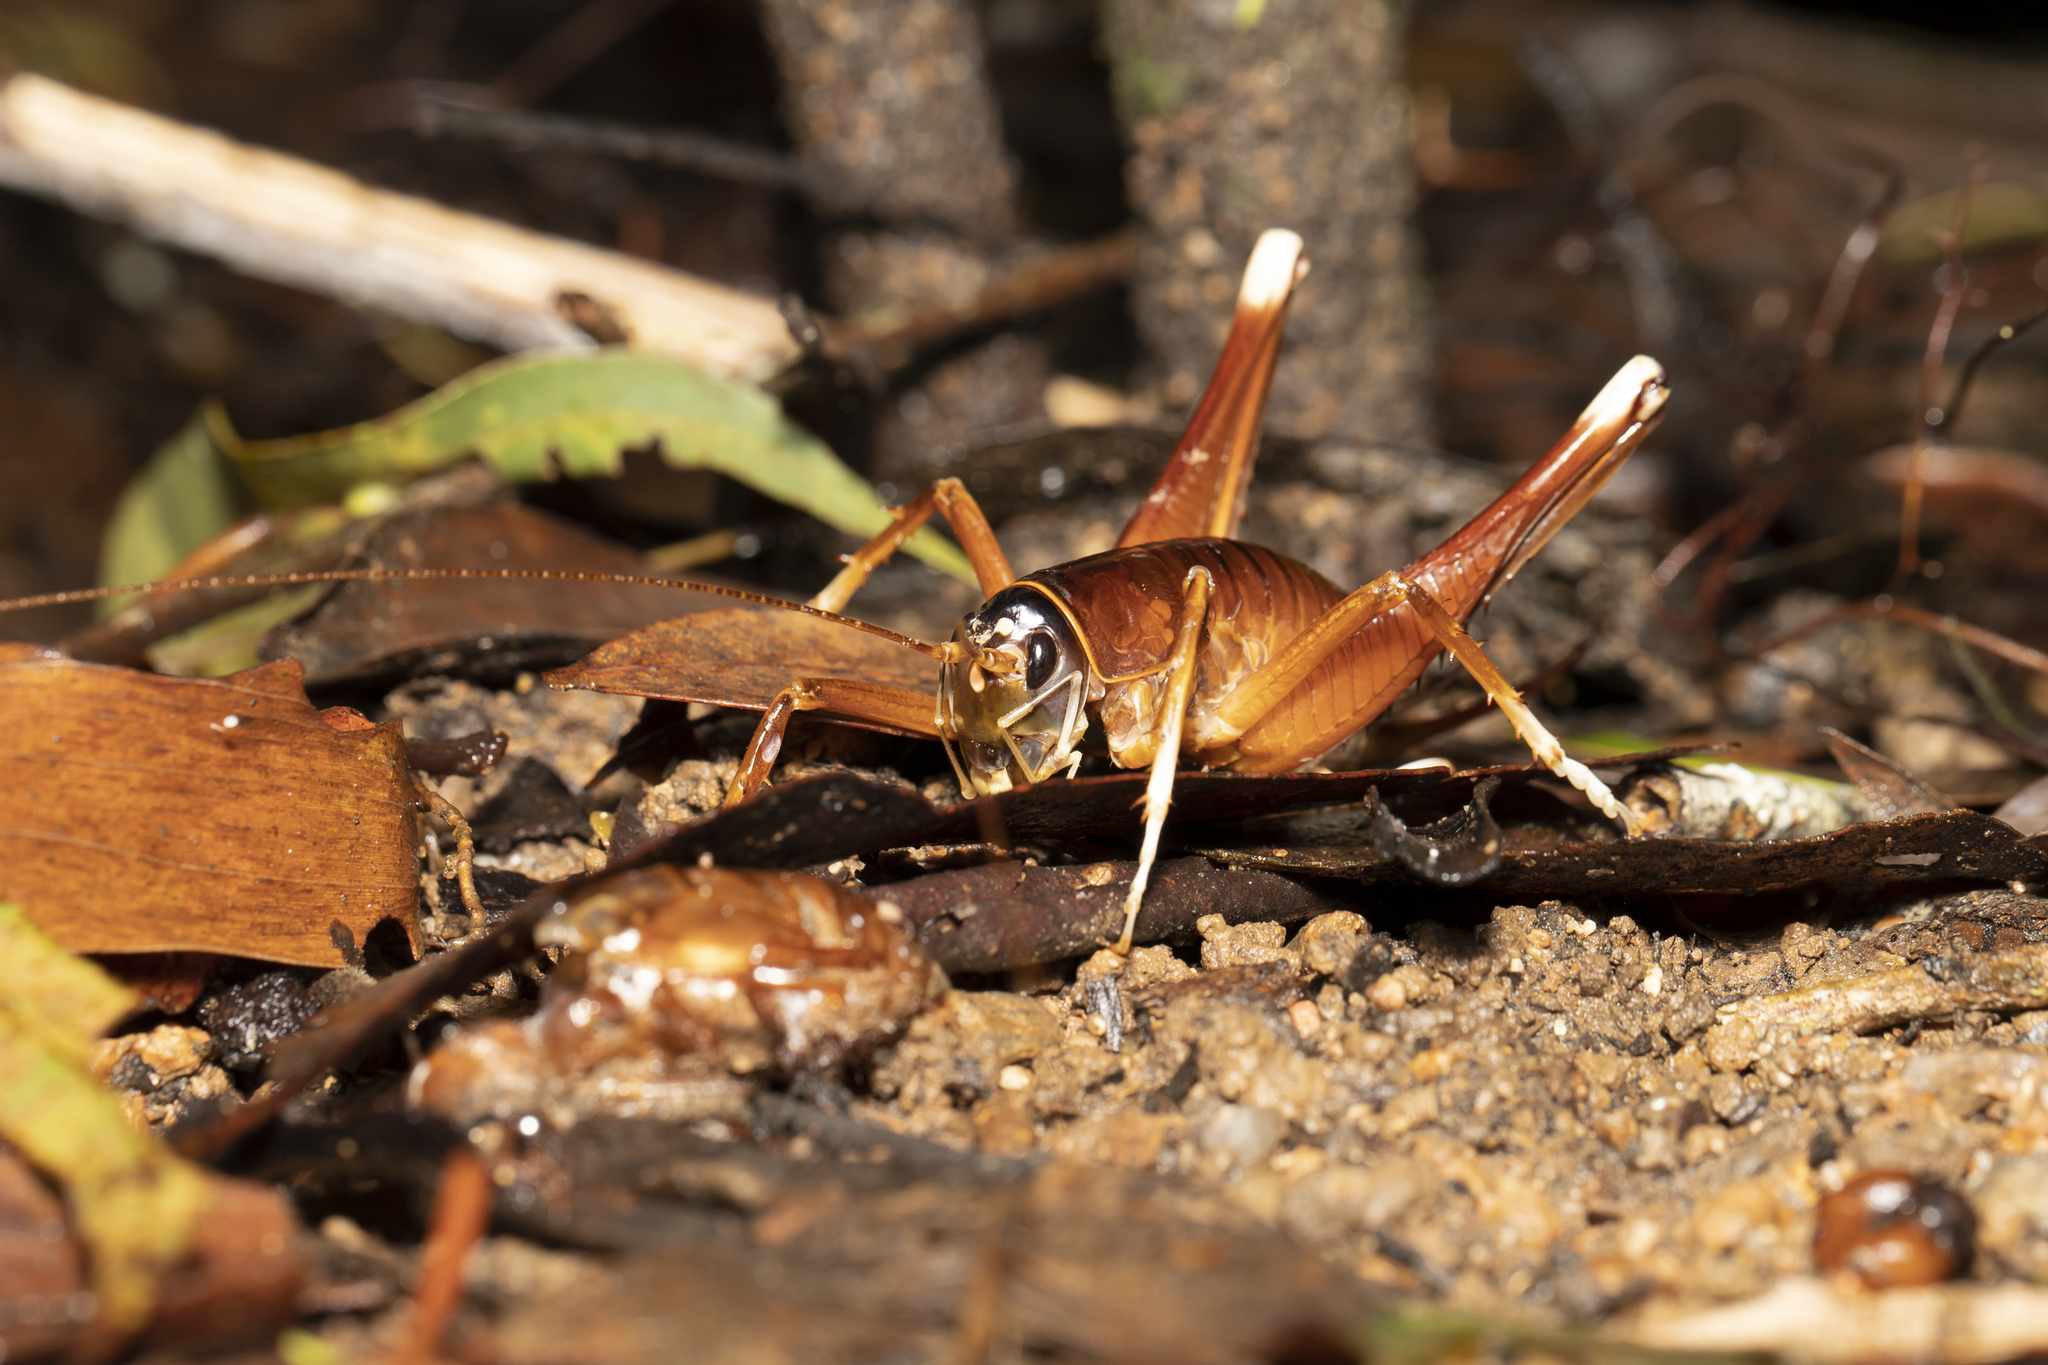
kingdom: Animalia
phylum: Arthropoda
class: Insecta
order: Orthoptera
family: Anostostomatidae
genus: Penalva
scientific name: Penalva flavocalceata
